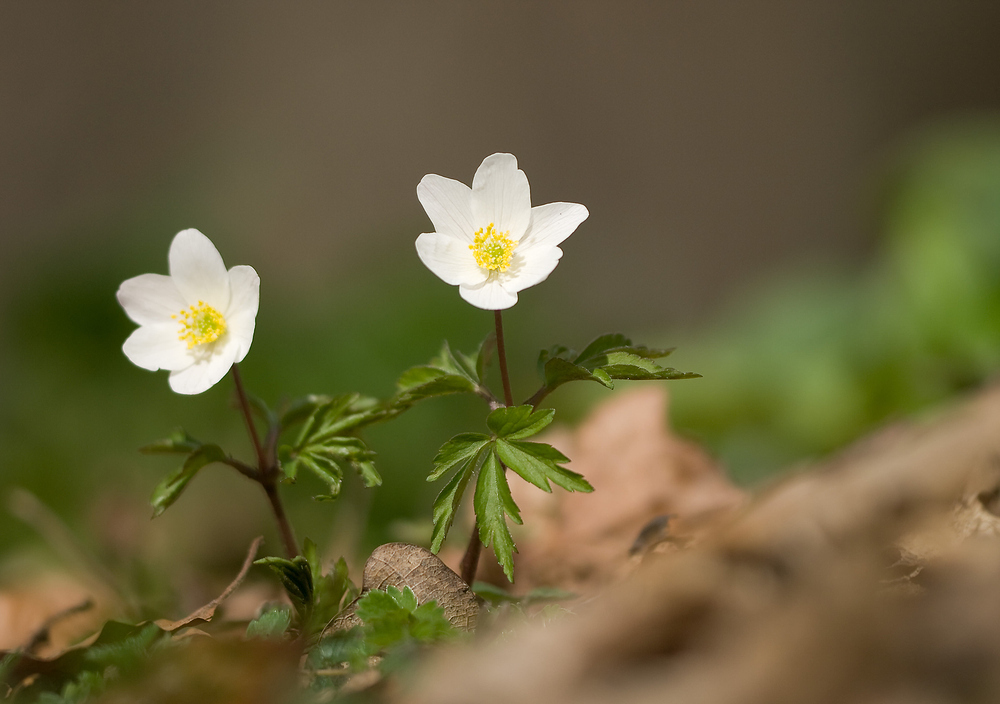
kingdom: Plantae
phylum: Tracheophyta
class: Magnoliopsida
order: Ranunculales
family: Ranunculaceae
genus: Anemone
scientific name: Anemone nemorosa
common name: Wood anemone
